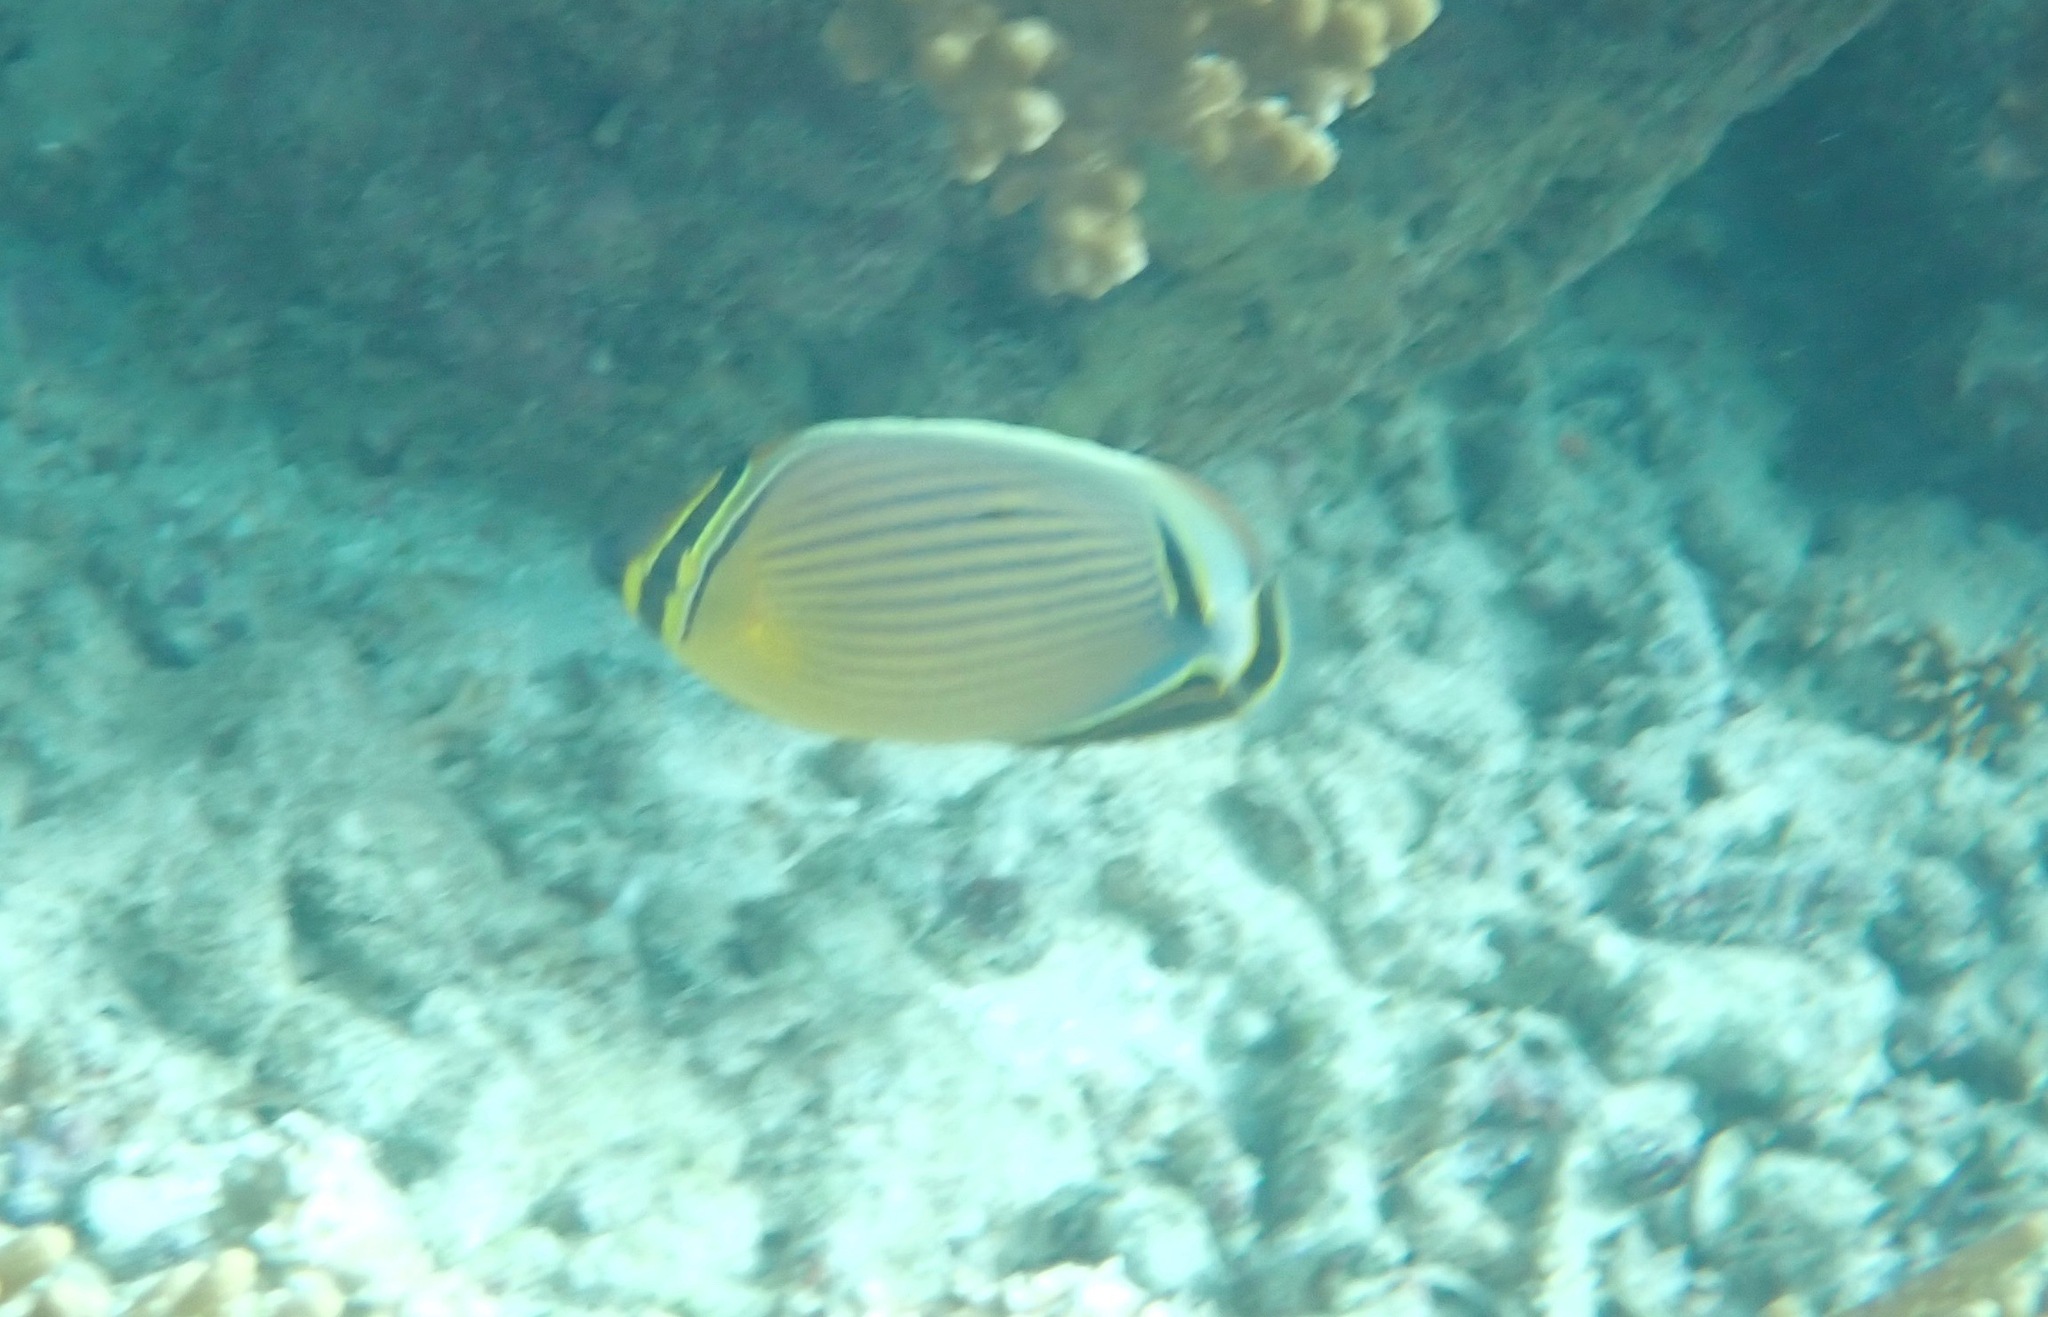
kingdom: Animalia
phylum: Chordata
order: Perciformes
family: Chaetodontidae
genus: Chaetodon
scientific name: Chaetodon lunulatus
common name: Redfin butterflyfish
